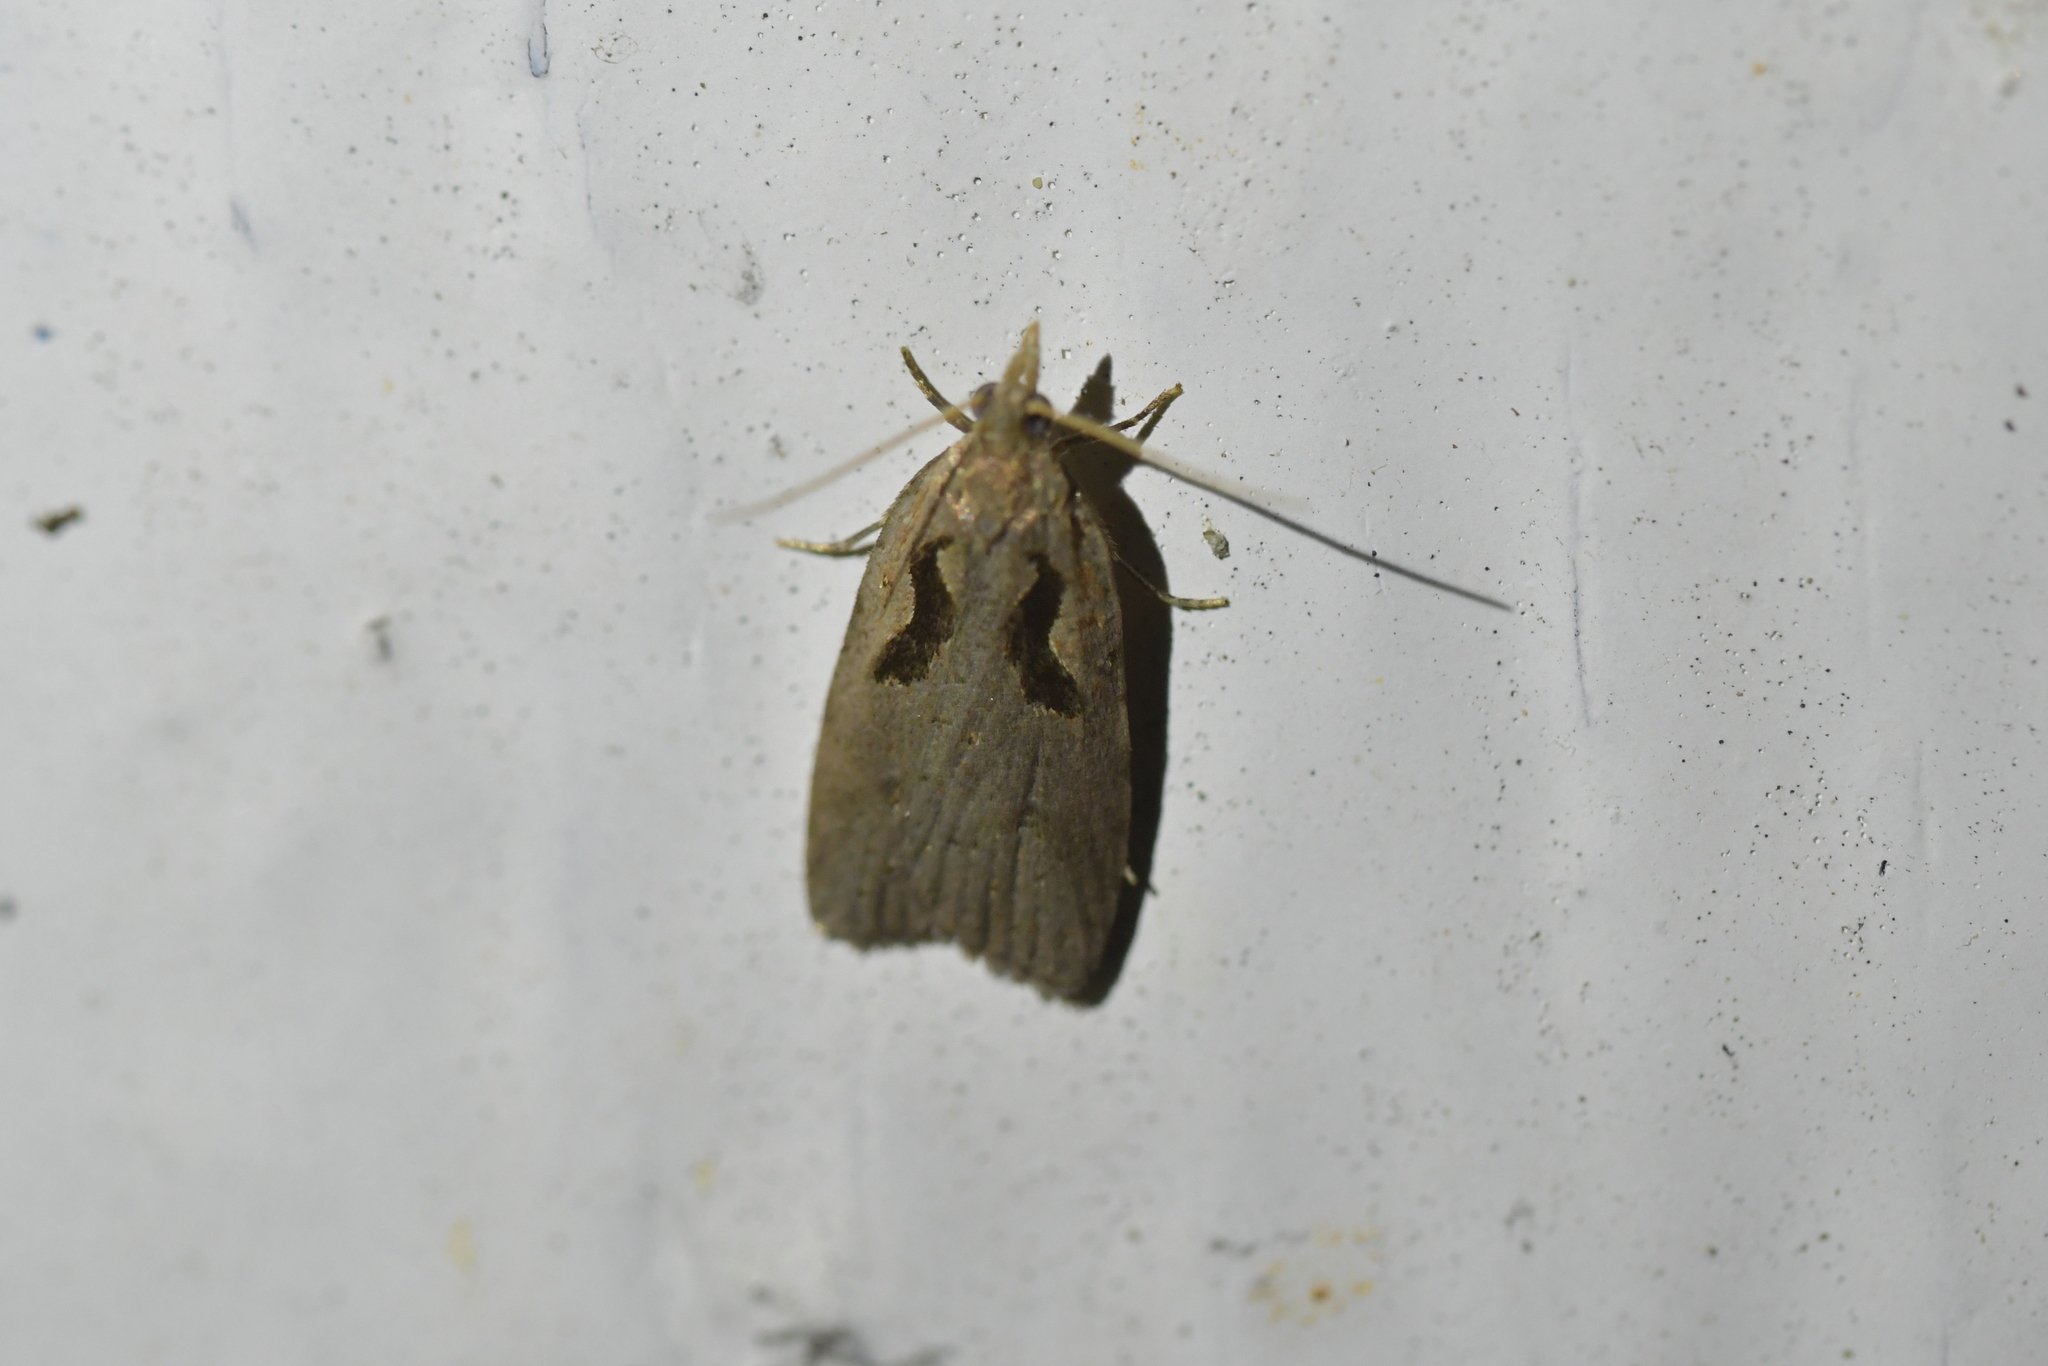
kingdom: Animalia
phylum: Arthropoda
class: Insecta
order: Lepidoptera
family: Tortricidae
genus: Cnephasia
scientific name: Cnephasia jactatana
